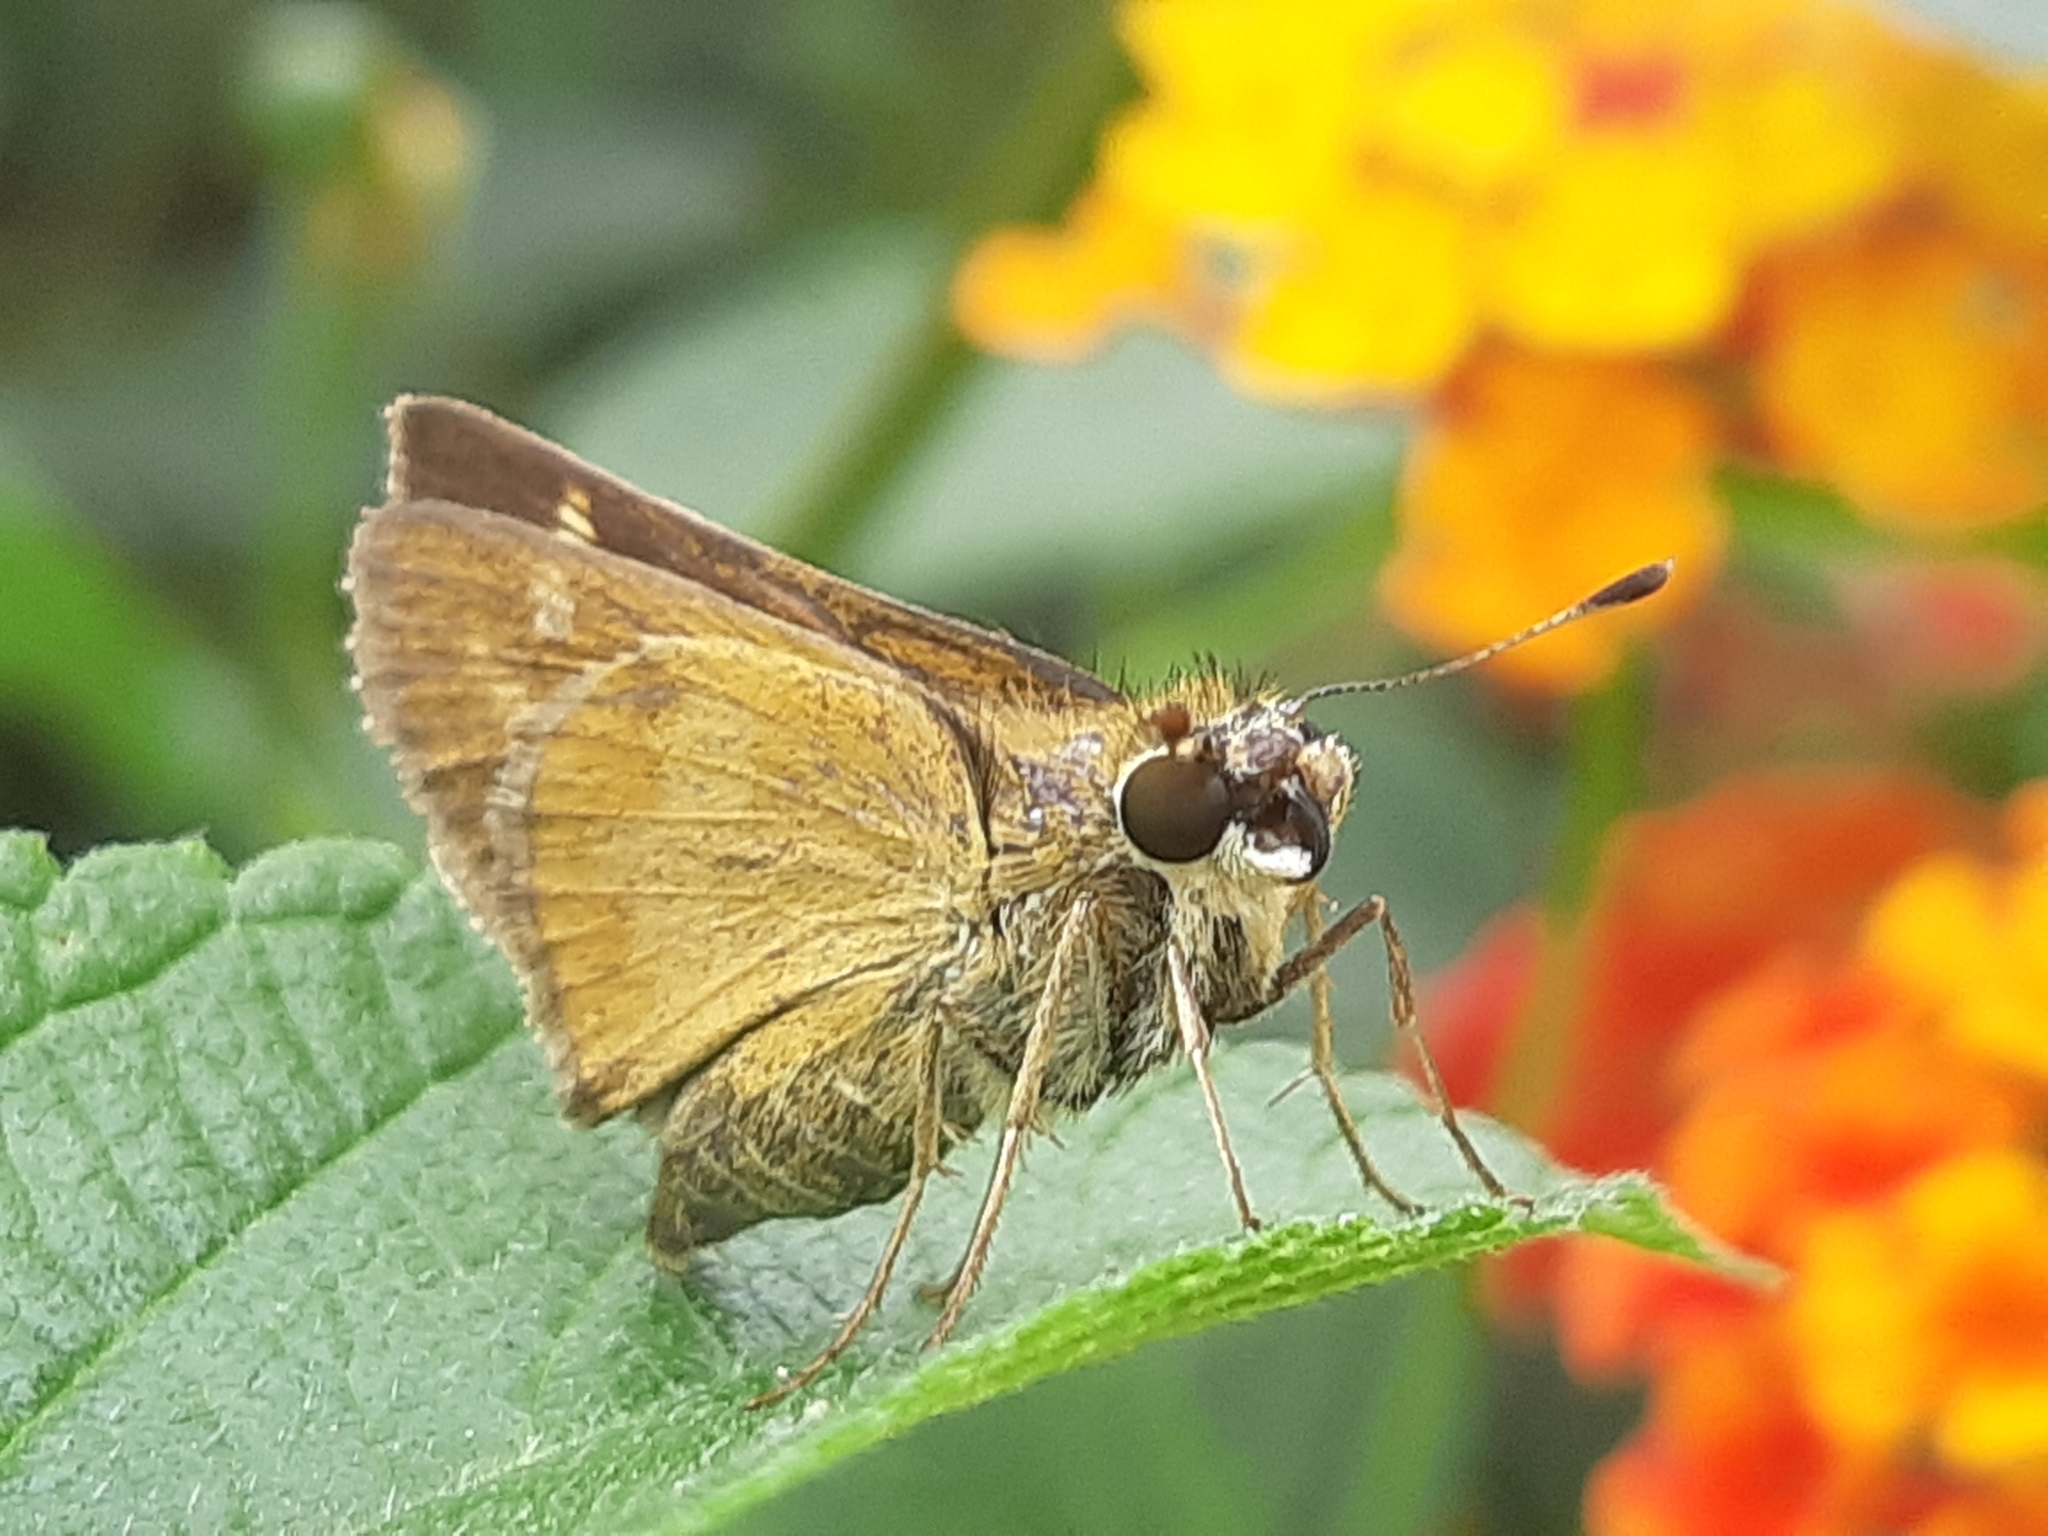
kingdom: Animalia
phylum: Arthropoda
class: Insecta
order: Lepidoptera
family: Hesperiidae
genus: Polites
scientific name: Polites vibex
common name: Whirlabout
